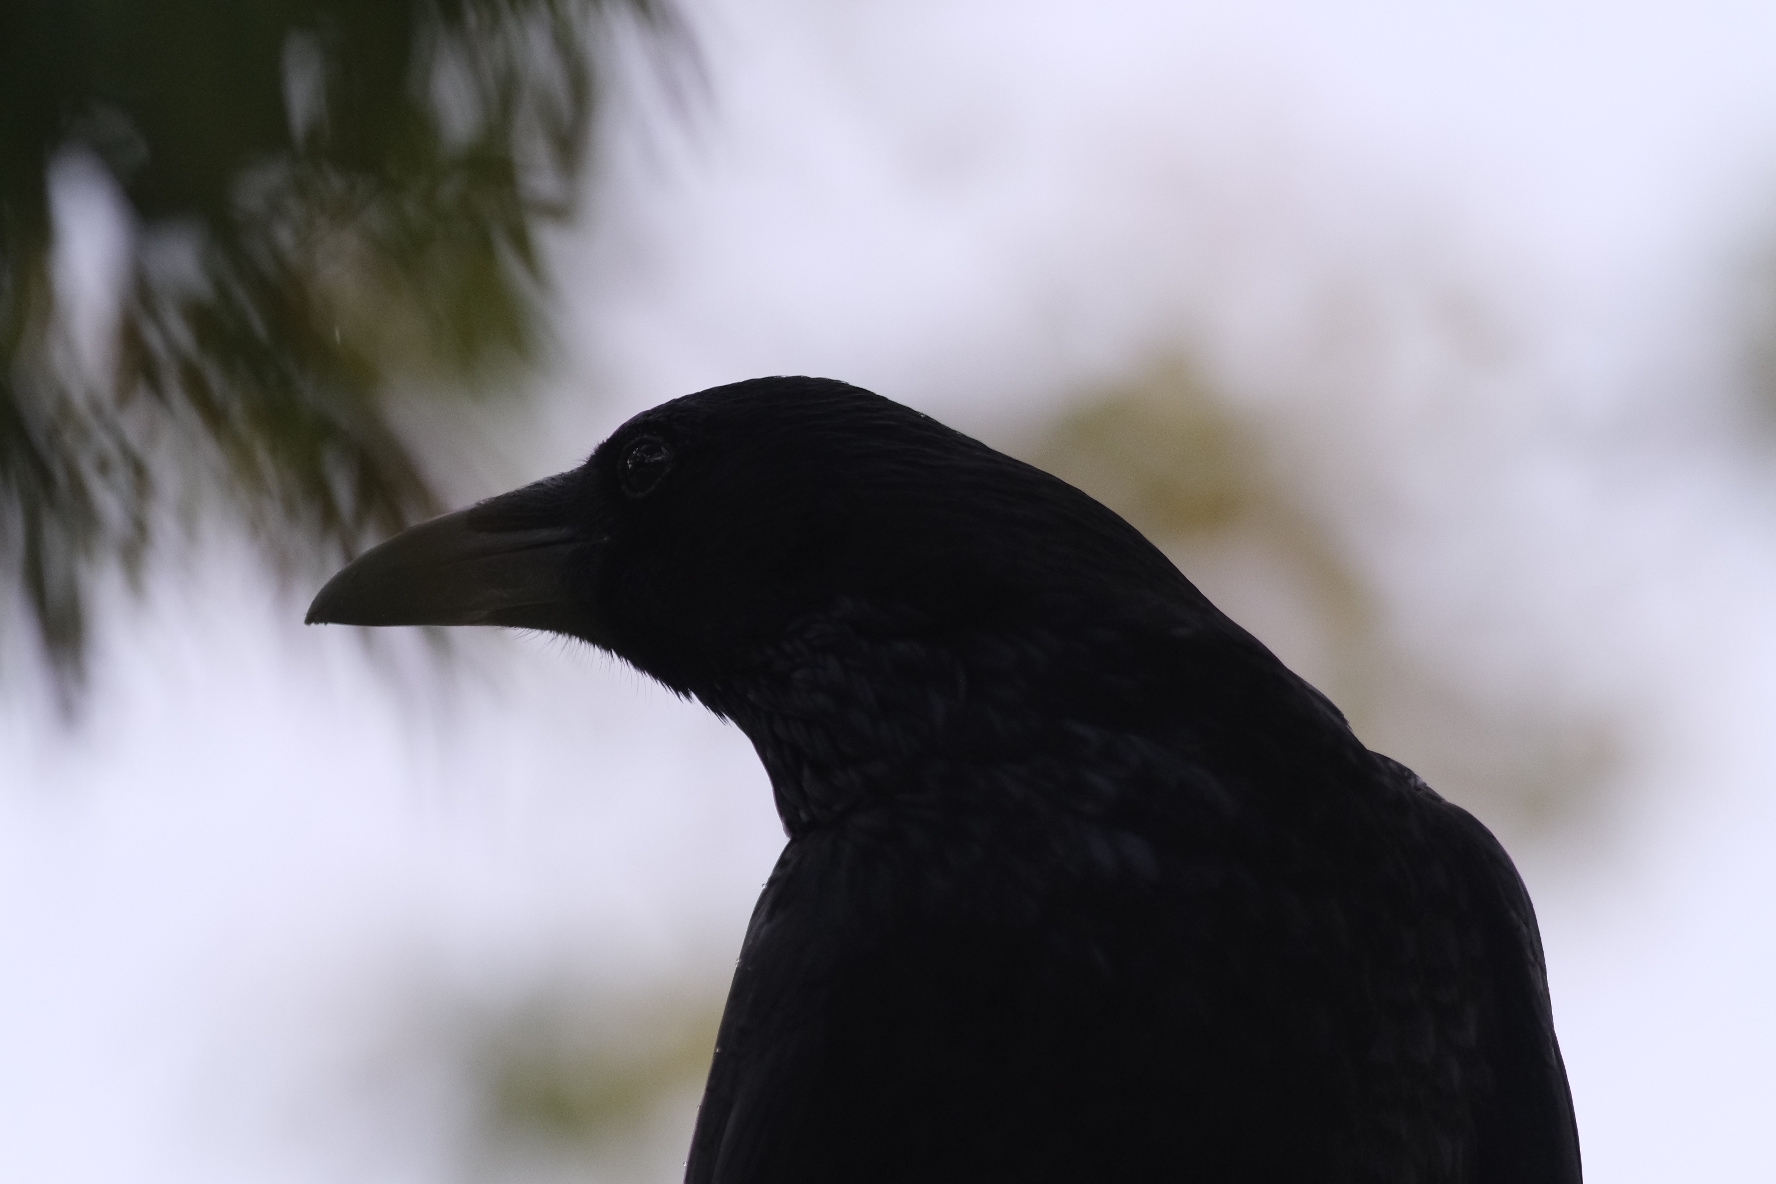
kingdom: Animalia
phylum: Chordata
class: Aves
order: Passeriformes
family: Corvidae
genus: Corvus
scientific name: Corvus corone
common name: Carrion crow
